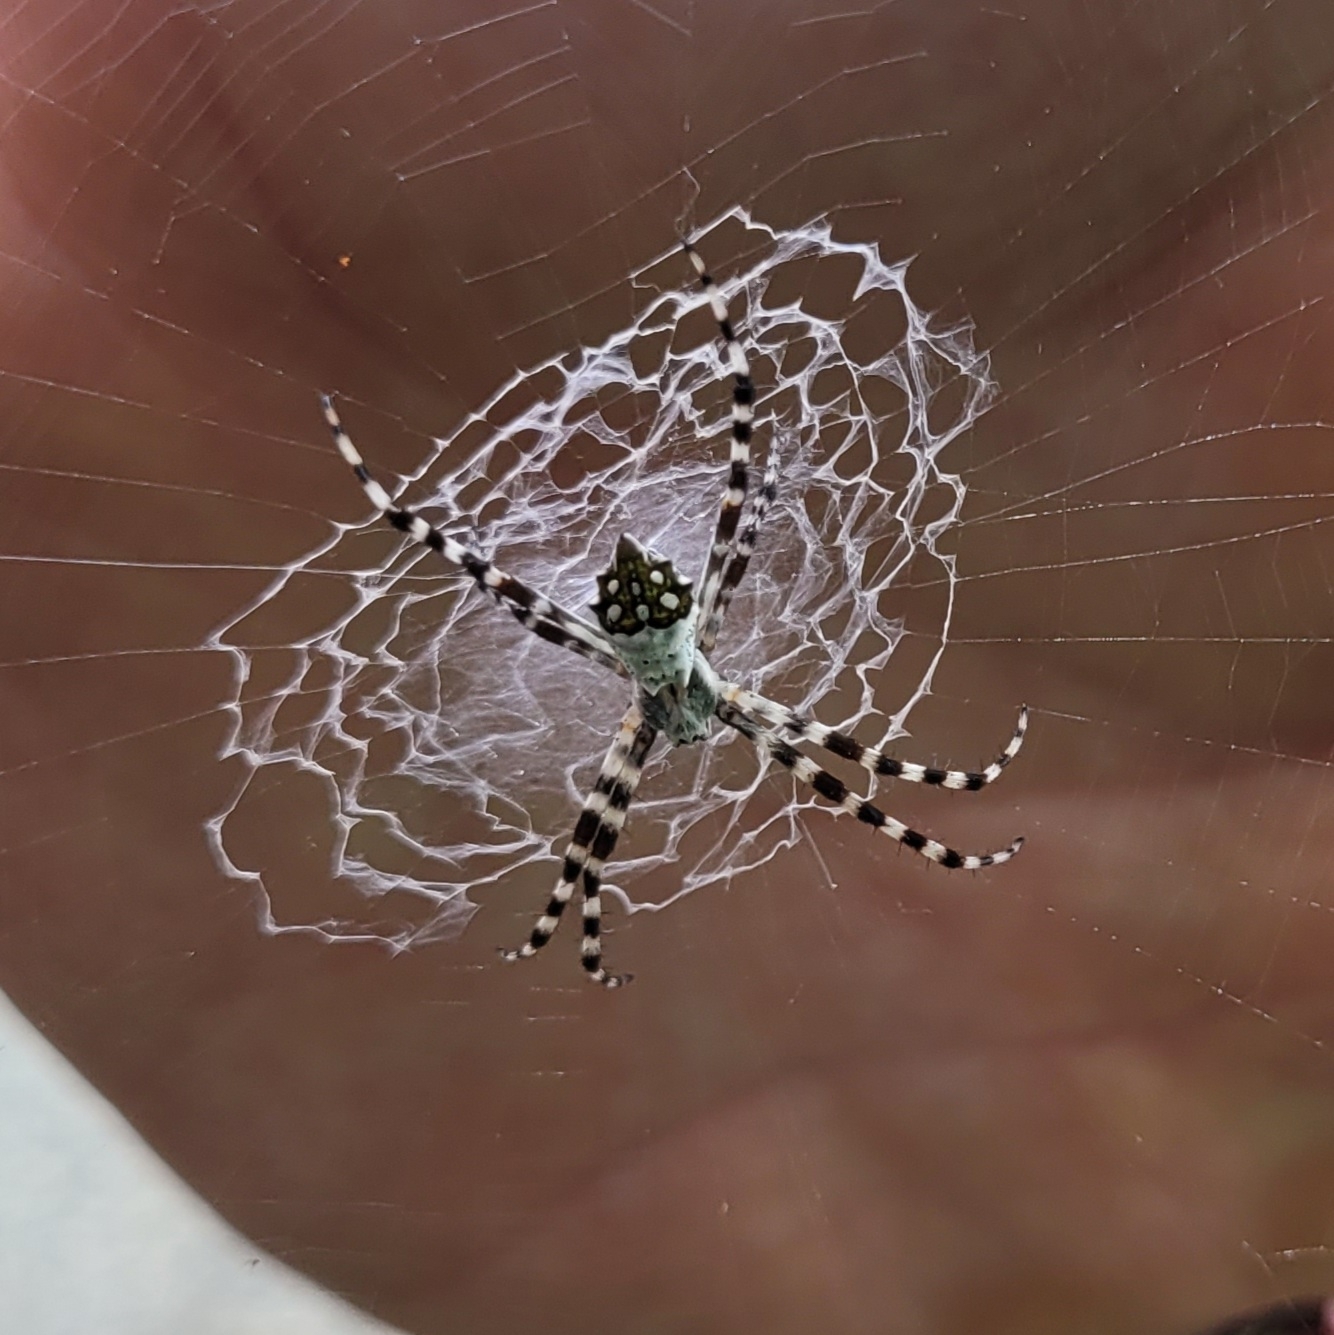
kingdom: Animalia
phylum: Arthropoda
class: Arachnida
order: Araneae
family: Araneidae
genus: Argiope
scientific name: Argiope argentata
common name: Orb weavers
